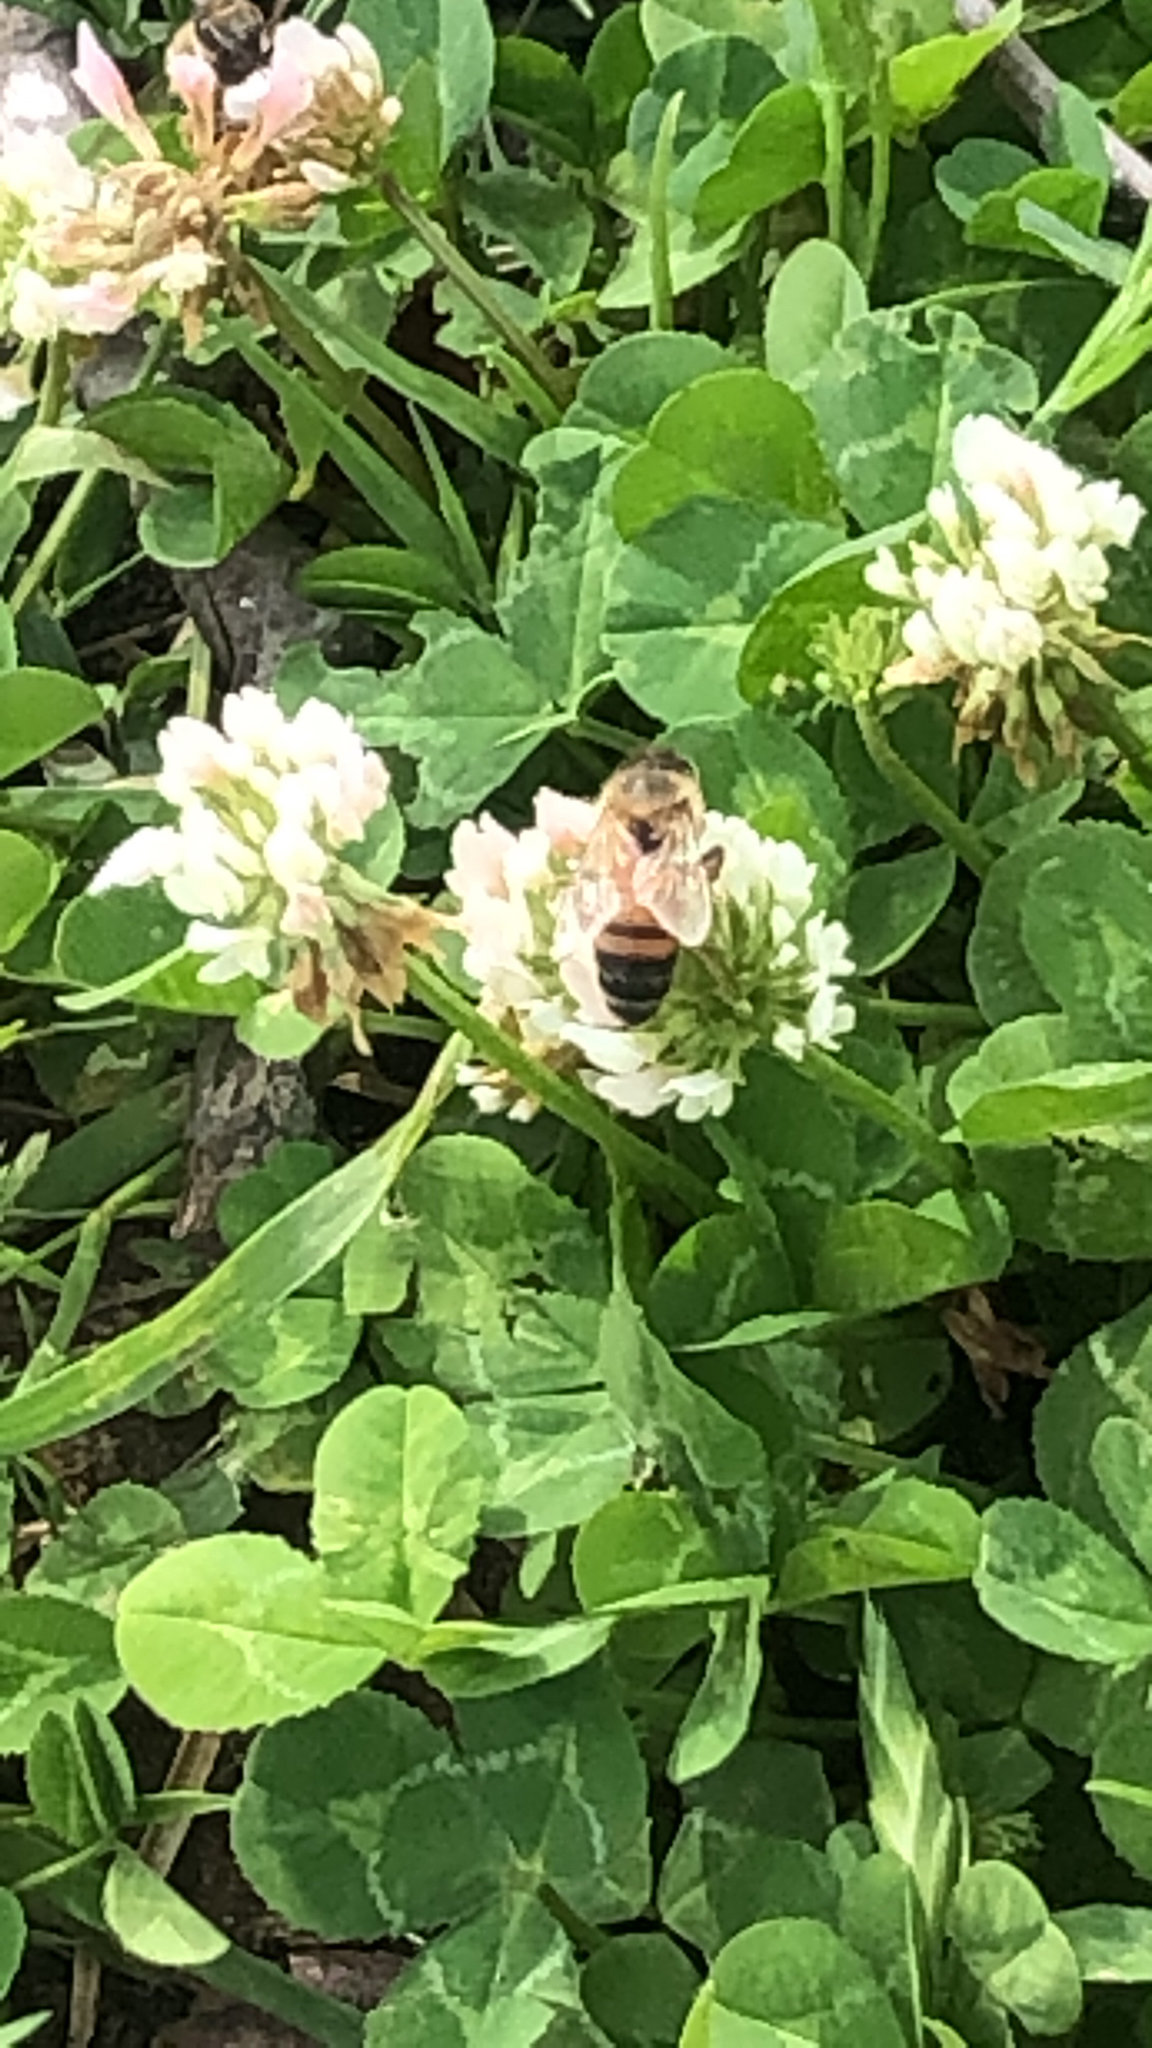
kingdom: Animalia
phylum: Arthropoda
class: Insecta
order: Hymenoptera
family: Apidae
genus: Apis
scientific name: Apis mellifera
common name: Honey bee
